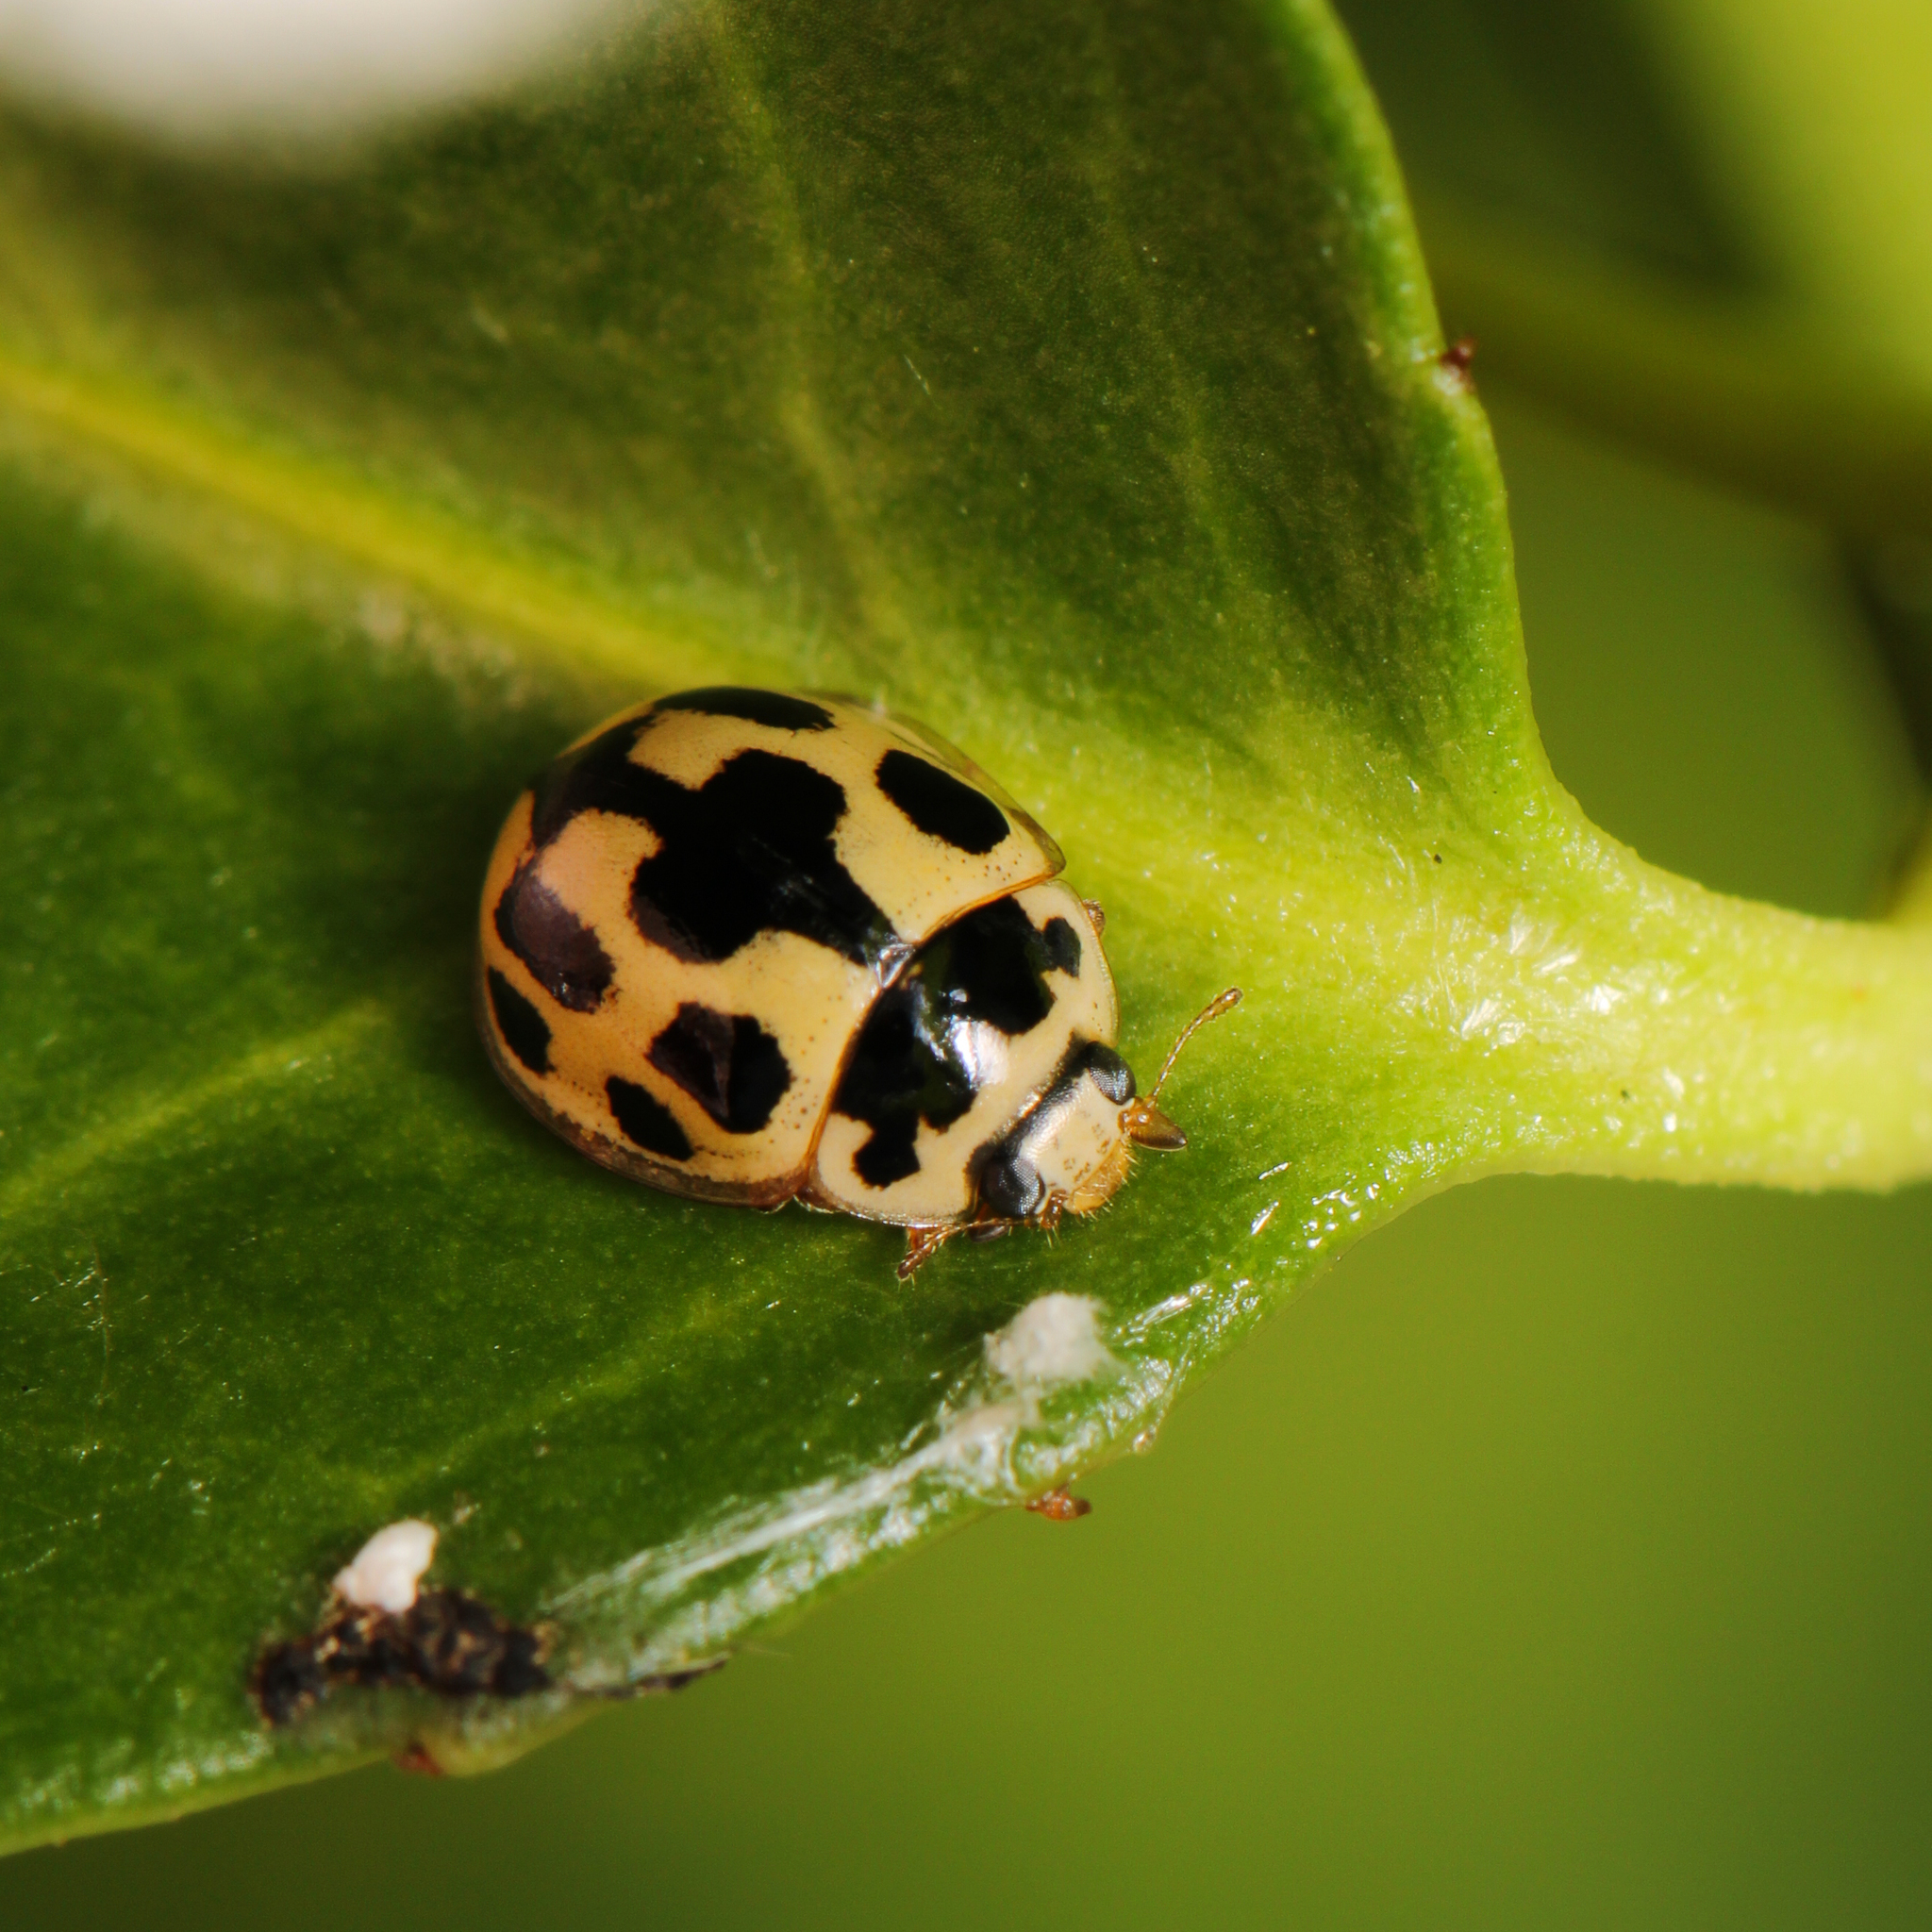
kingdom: Animalia
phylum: Arthropoda
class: Insecta
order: Coleoptera
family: Coccinellidae
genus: Propylaea
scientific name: Propylaea quatuordecimpunctata
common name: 14-spotted ladybird beetle
